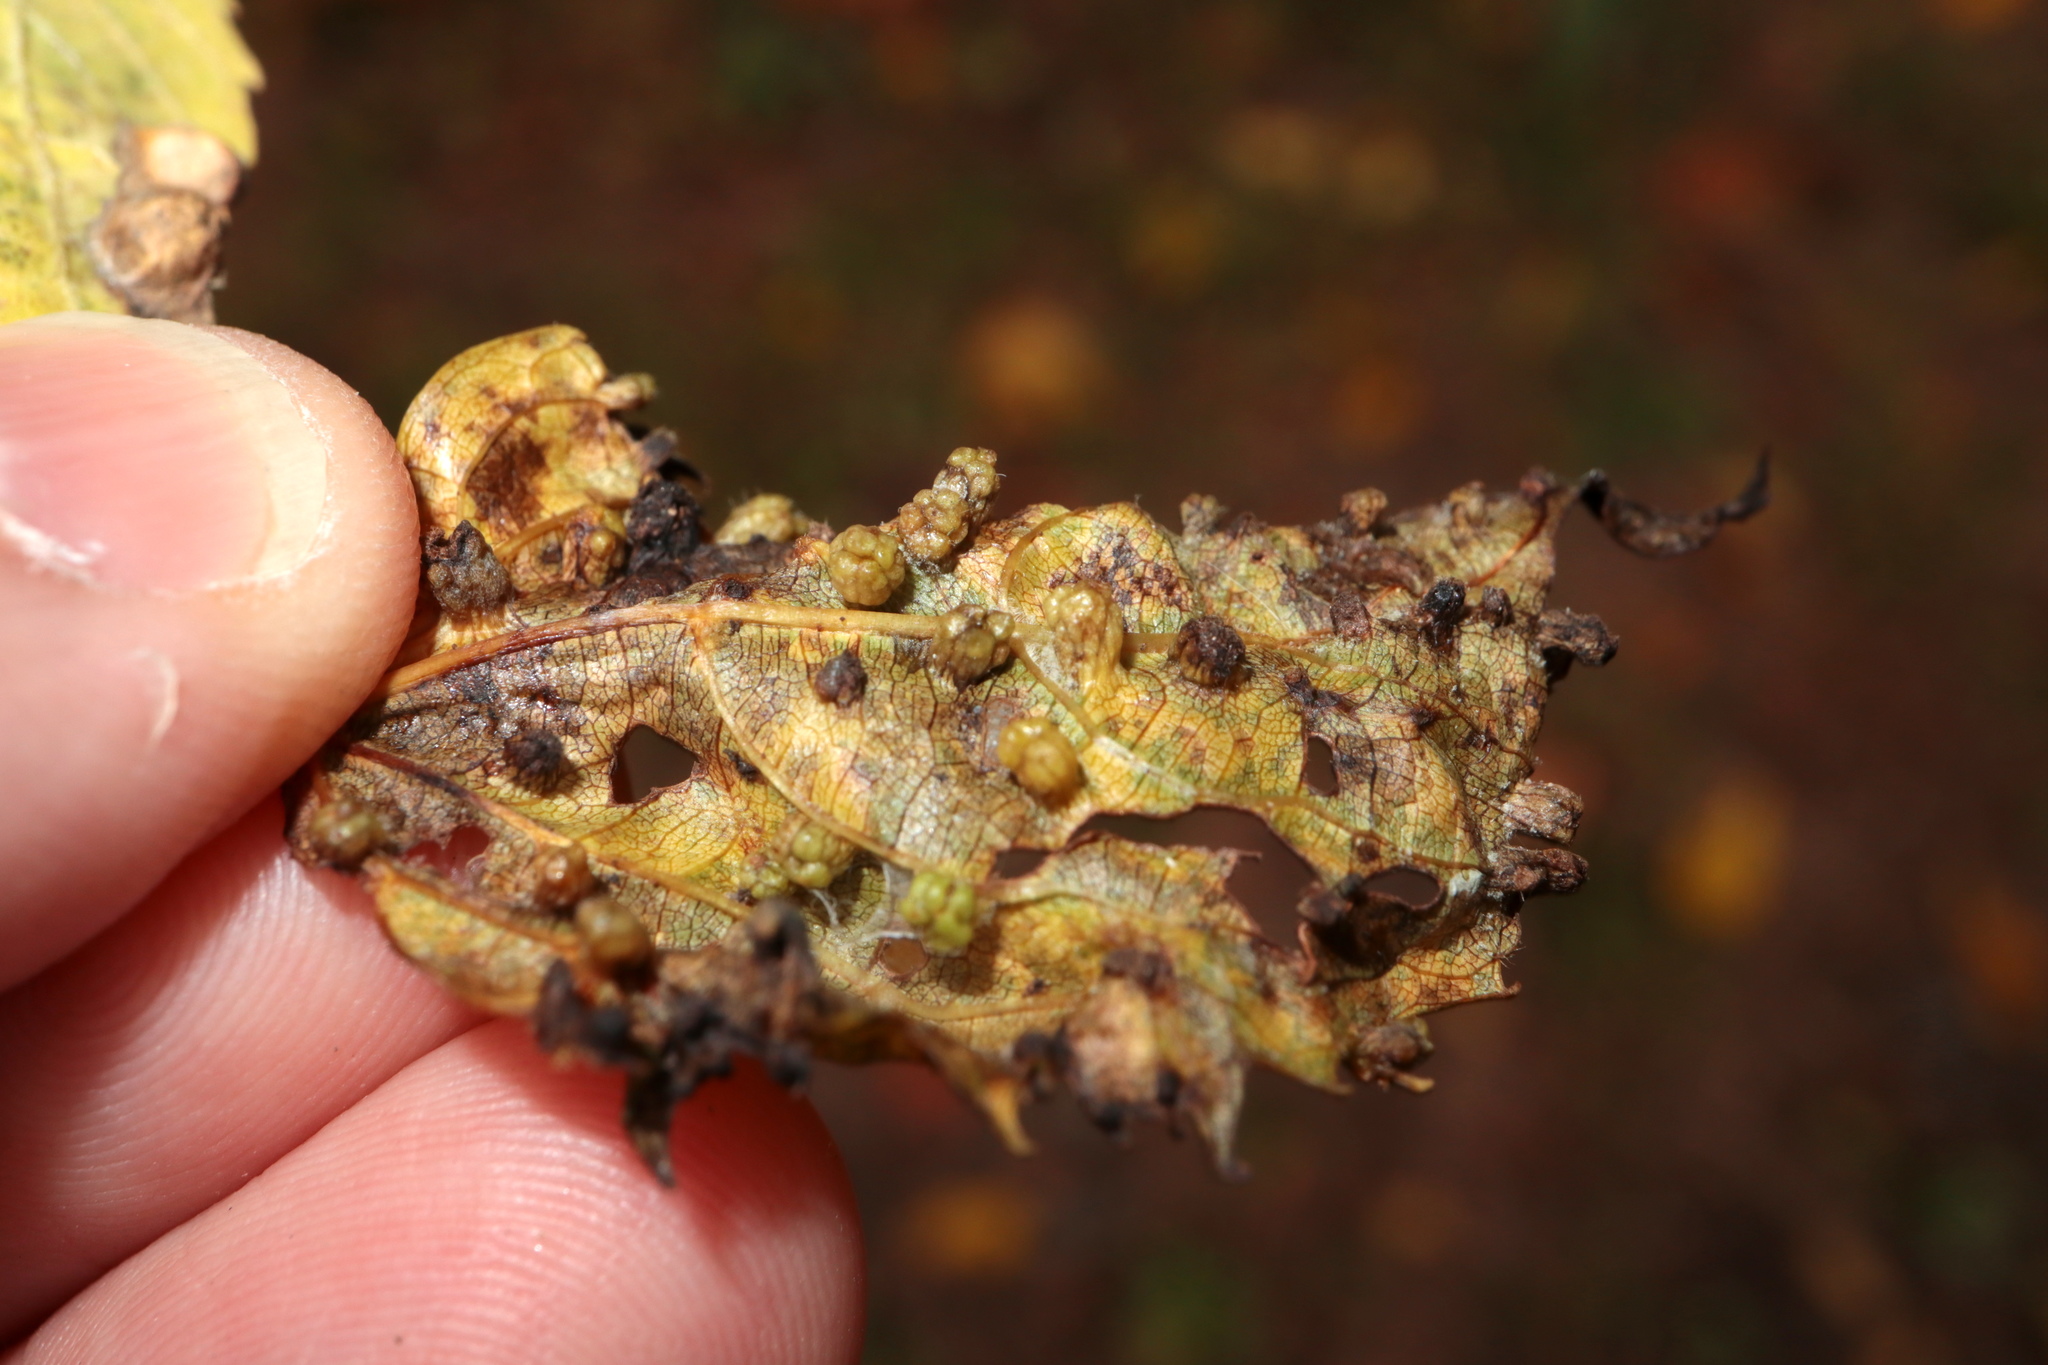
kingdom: Animalia
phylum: Arthropoda
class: Insecta
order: Hemiptera
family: Phylloxeridae
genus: Daktulosphaira
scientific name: Daktulosphaira vitifoliae
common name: Grape phylloxera
